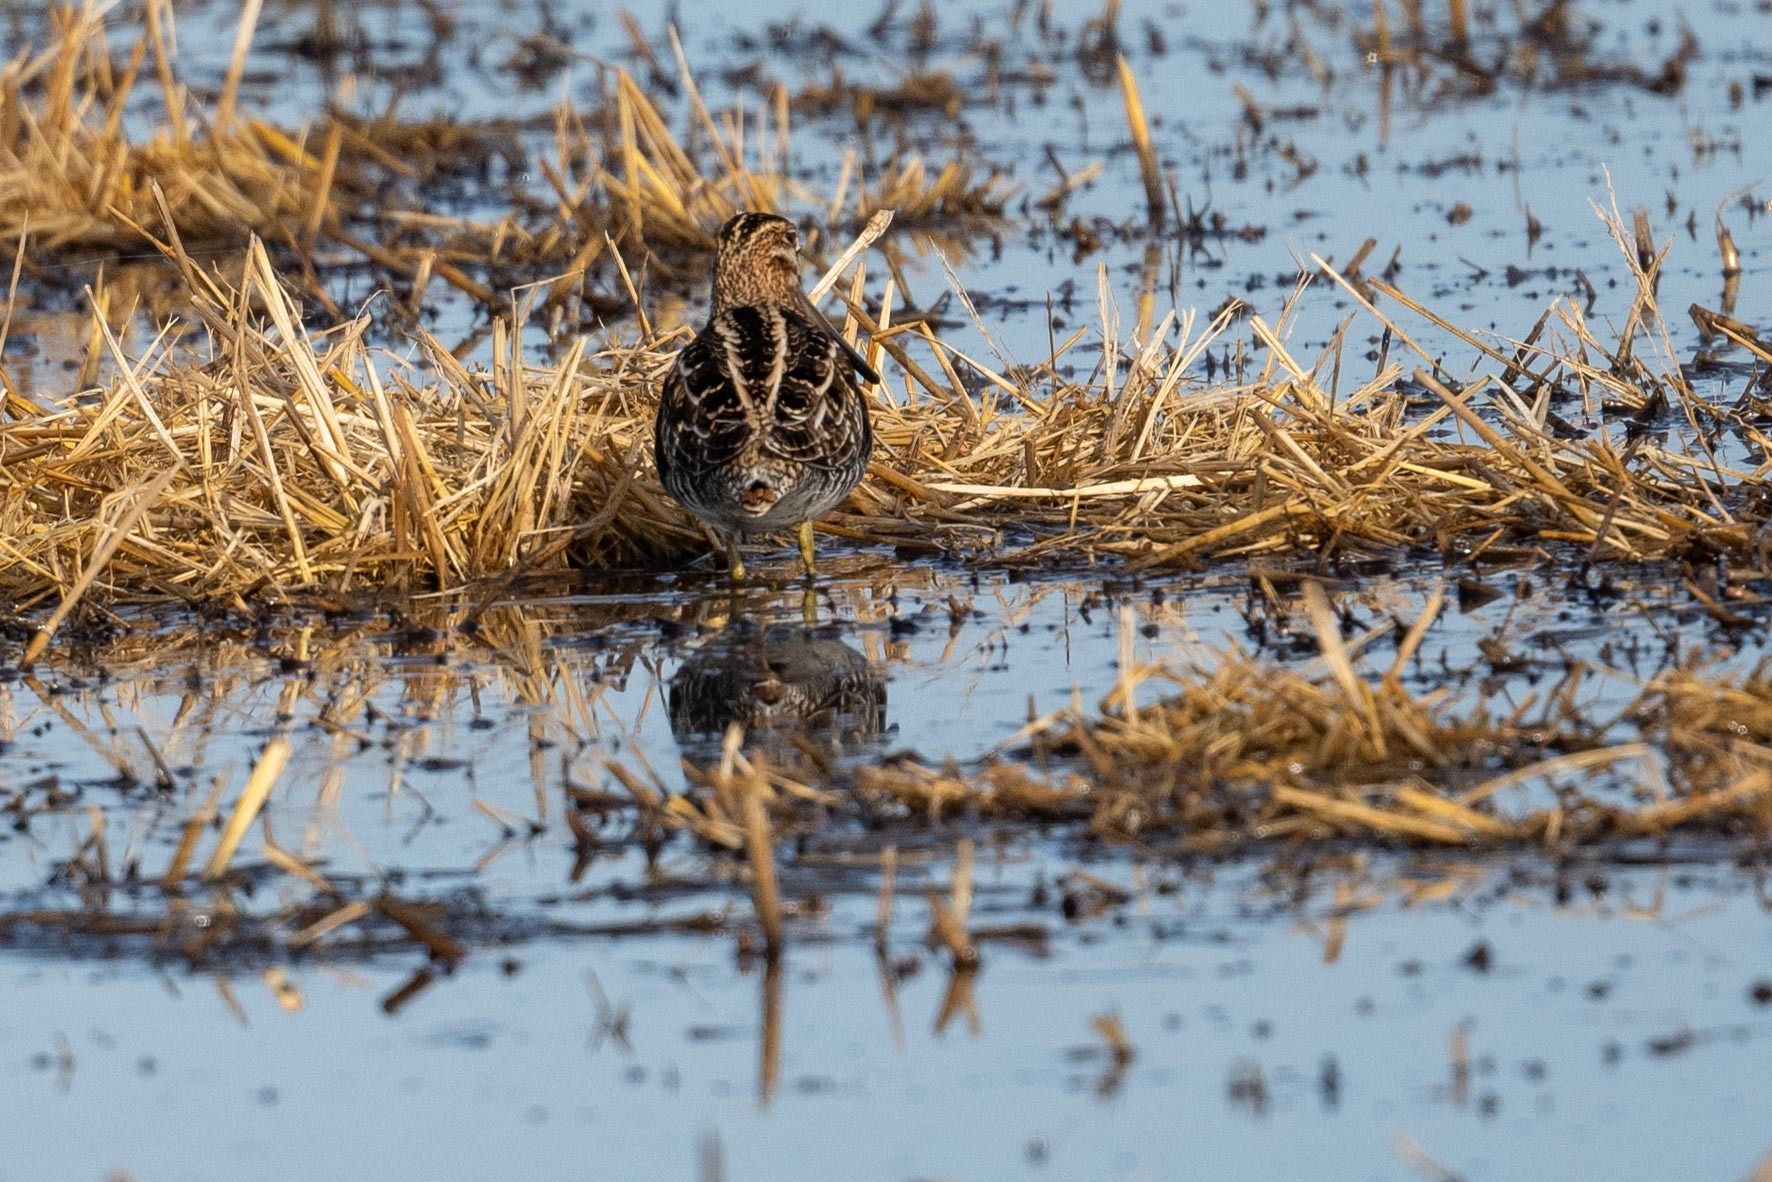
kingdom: Animalia
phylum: Chordata
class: Aves
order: Charadriiformes
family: Scolopacidae
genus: Gallinago
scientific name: Gallinago delicata
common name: Wilson's snipe
